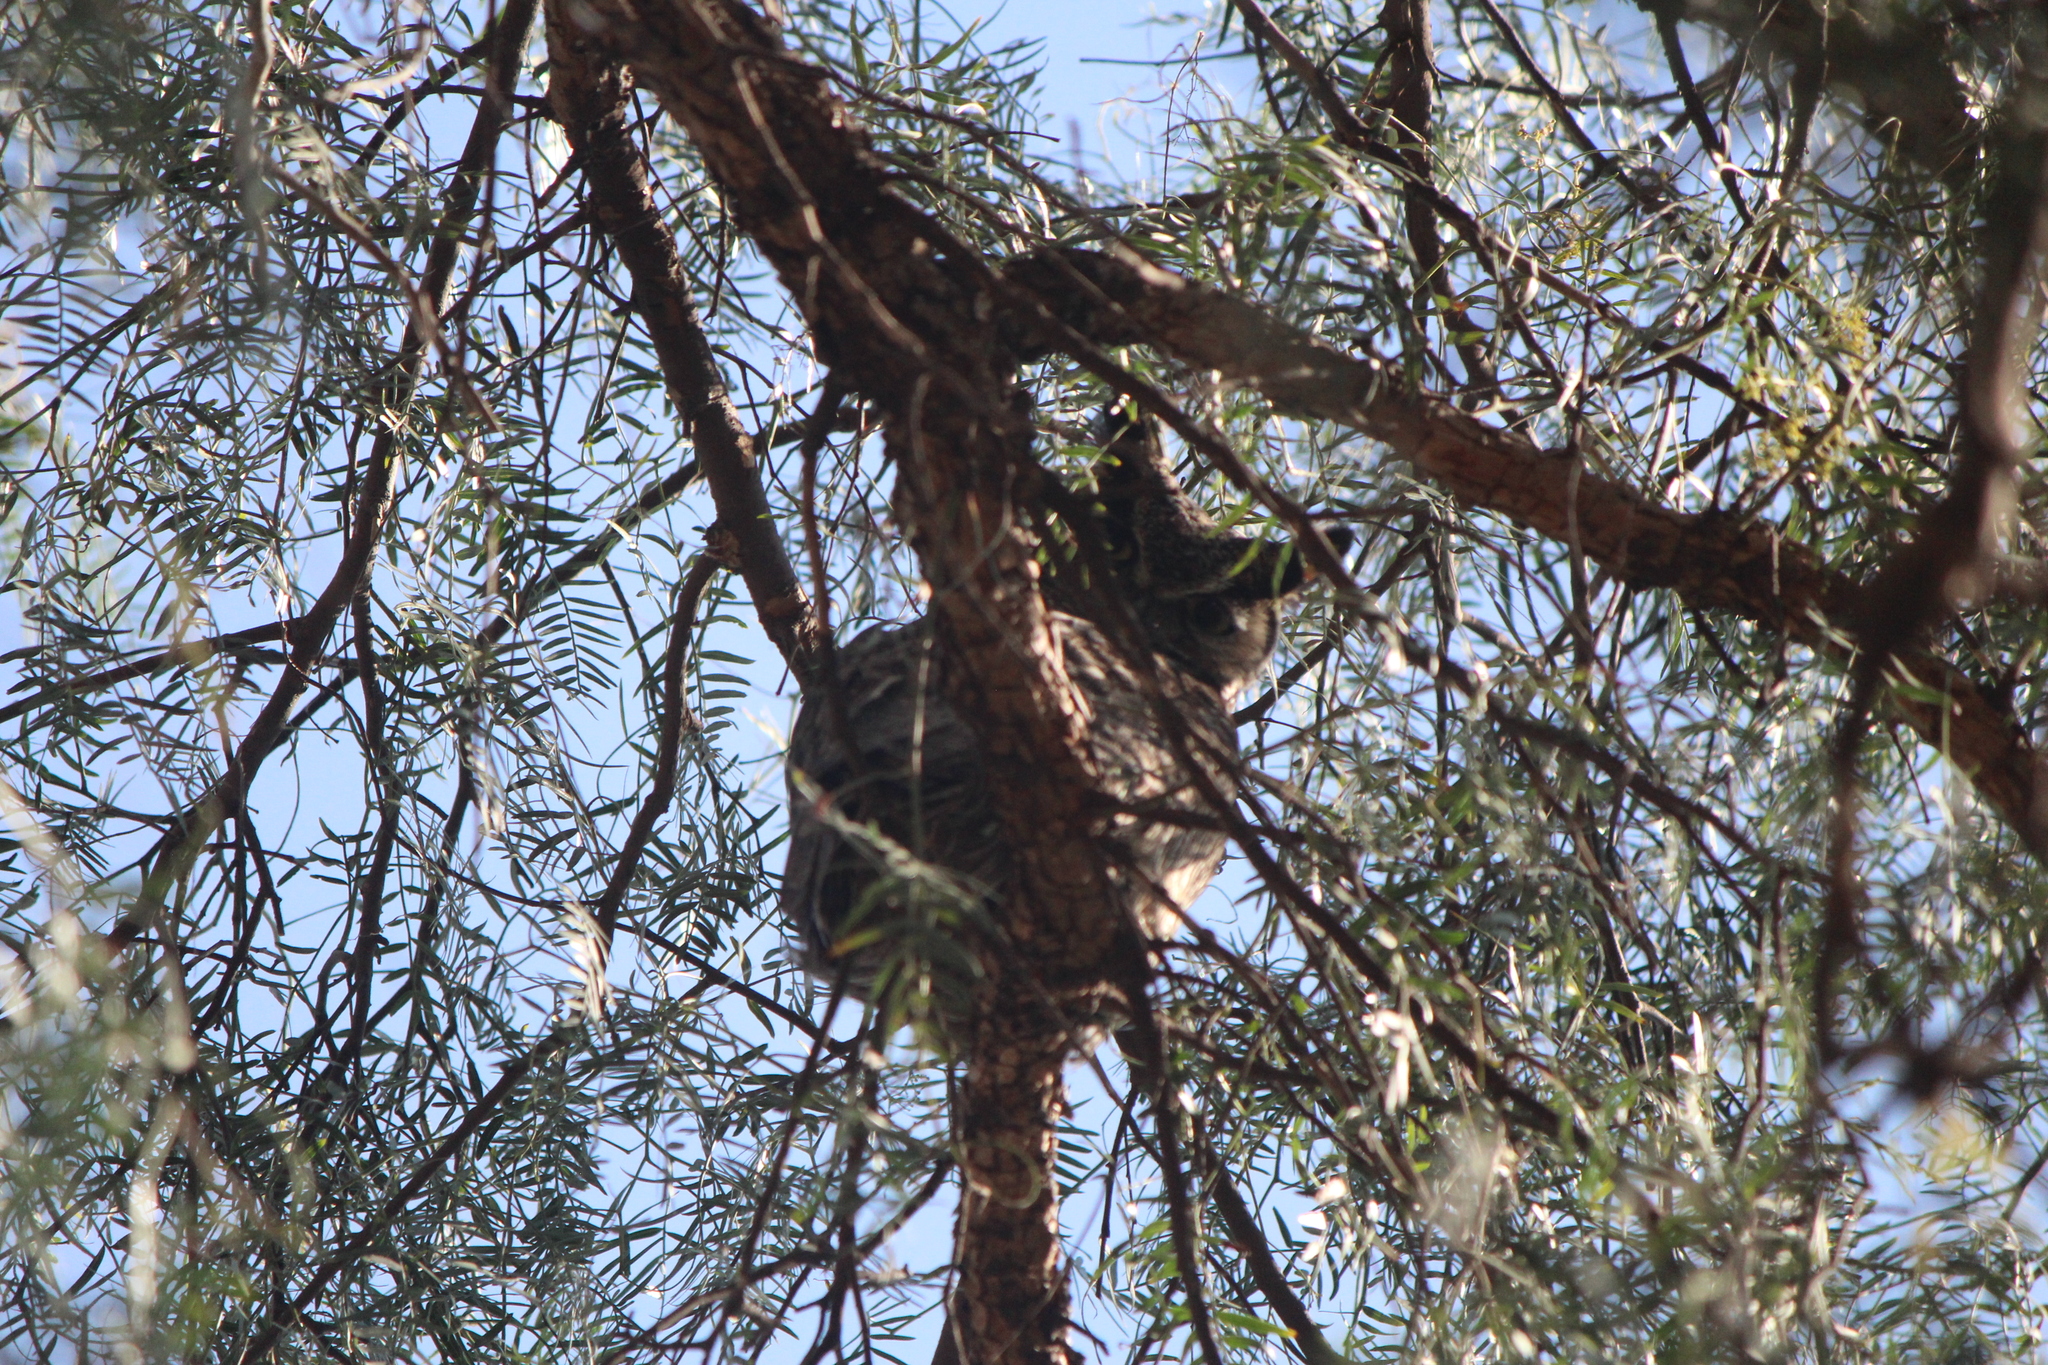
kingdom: Animalia
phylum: Chordata
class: Aves
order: Strigiformes
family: Strigidae
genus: Bubo
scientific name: Bubo virginianus
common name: Great horned owl
